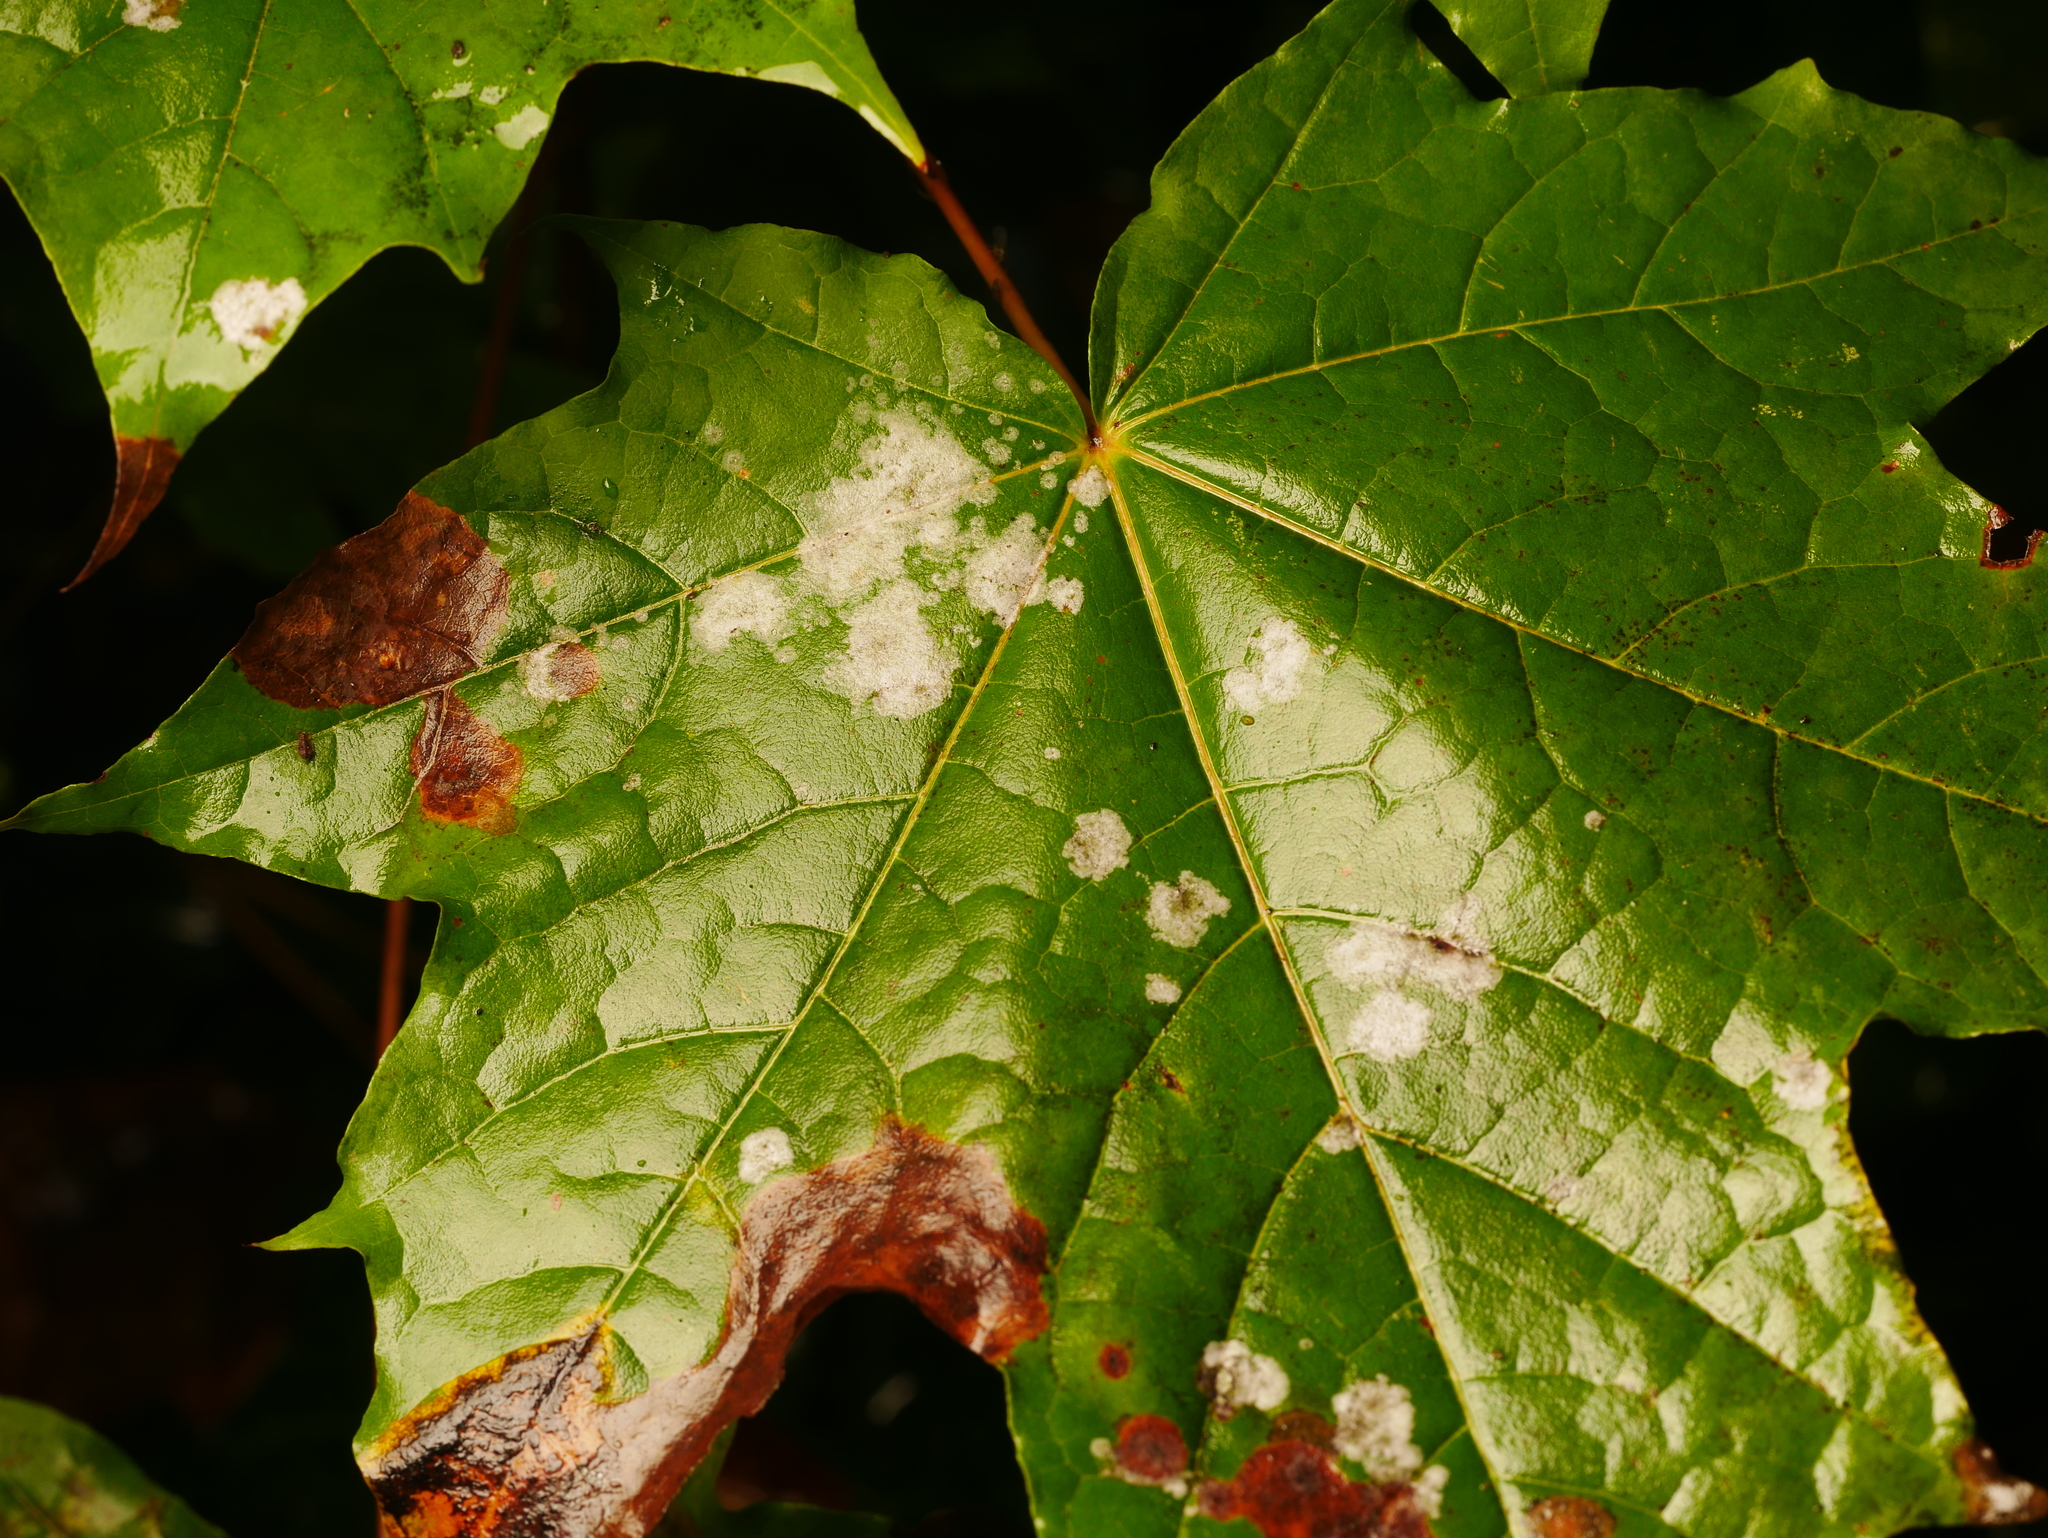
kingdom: Fungi
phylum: Ascomycota
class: Leotiomycetes
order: Helotiales
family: Erysiphaceae
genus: Sawadaea
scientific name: Sawadaea tulasnei
